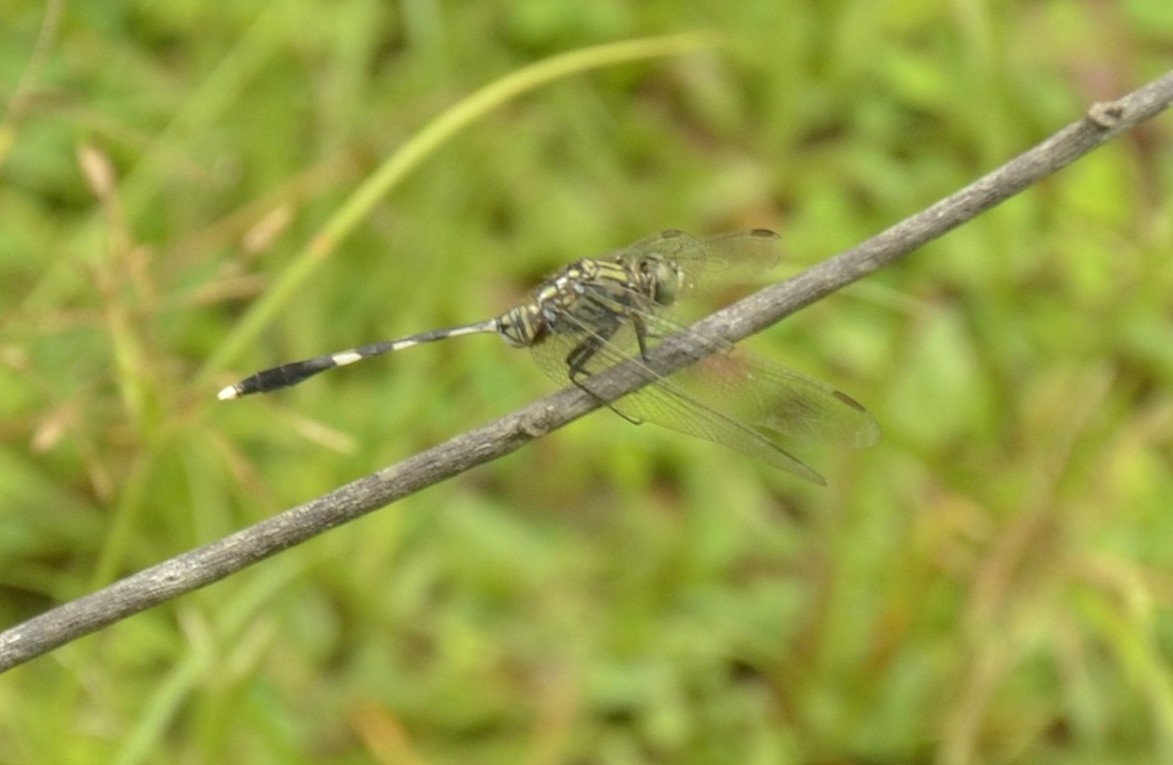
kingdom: Animalia
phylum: Arthropoda
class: Insecta
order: Odonata
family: Libellulidae
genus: Orthetrum
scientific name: Orthetrum sabina
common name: Slender skimmer
